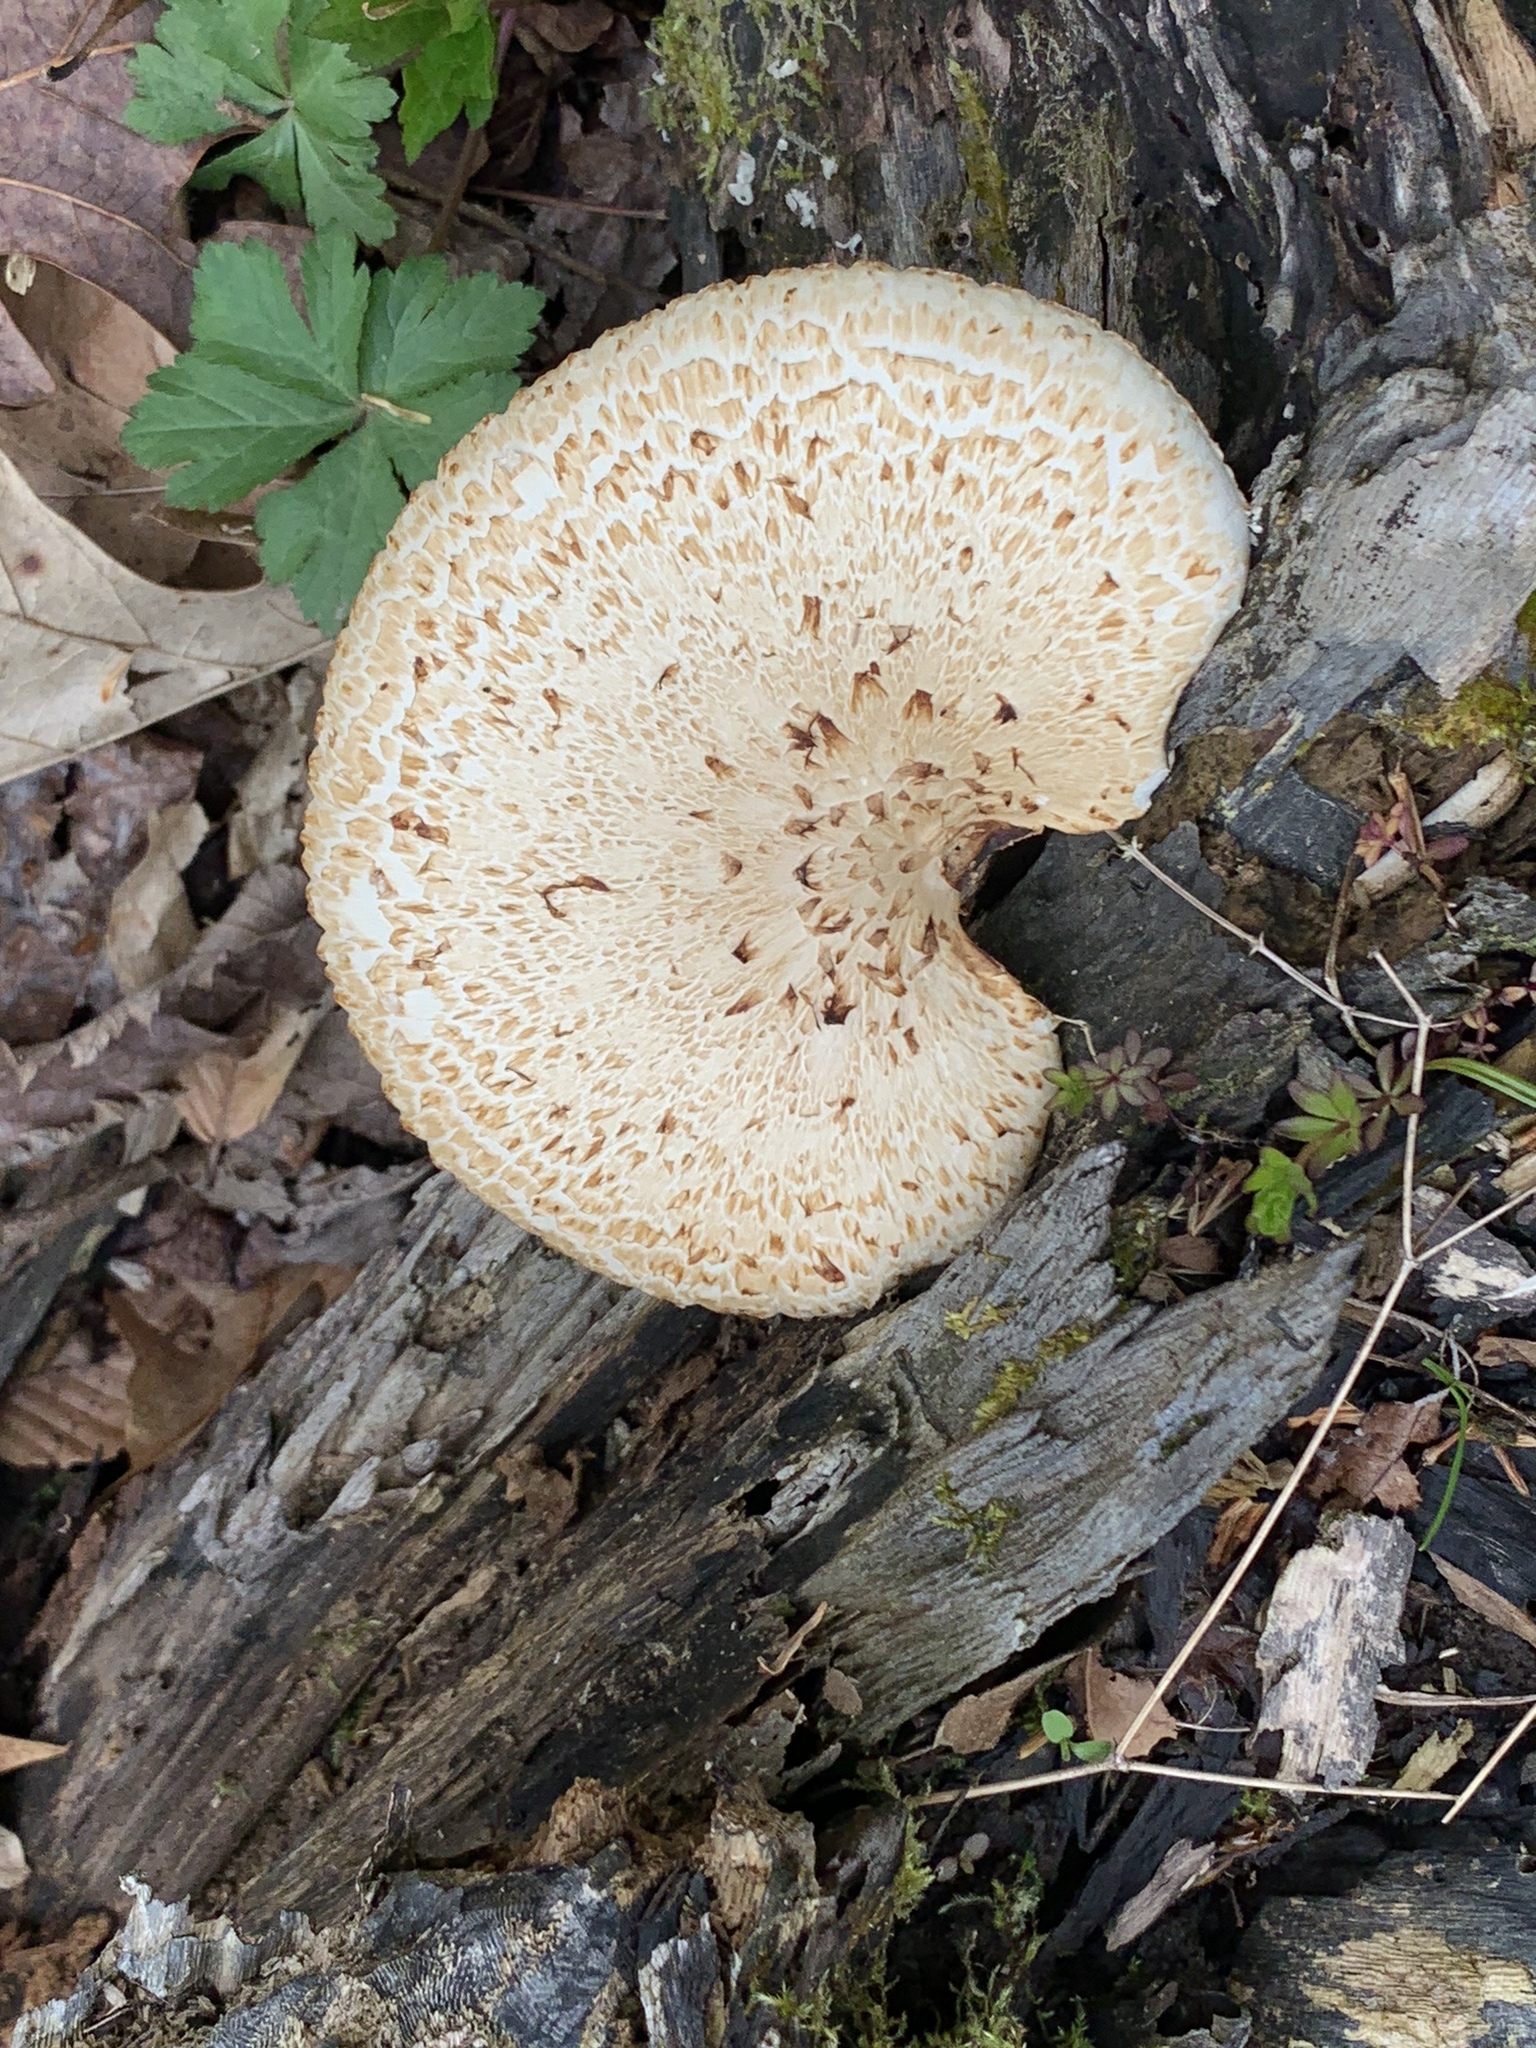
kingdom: Fungi
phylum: Basidiomycota
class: Agaricomycetes
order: Polyporales
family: Polyporaceae
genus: Cerioporus
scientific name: Cerioporus squamosus
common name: Dryad's saddle
